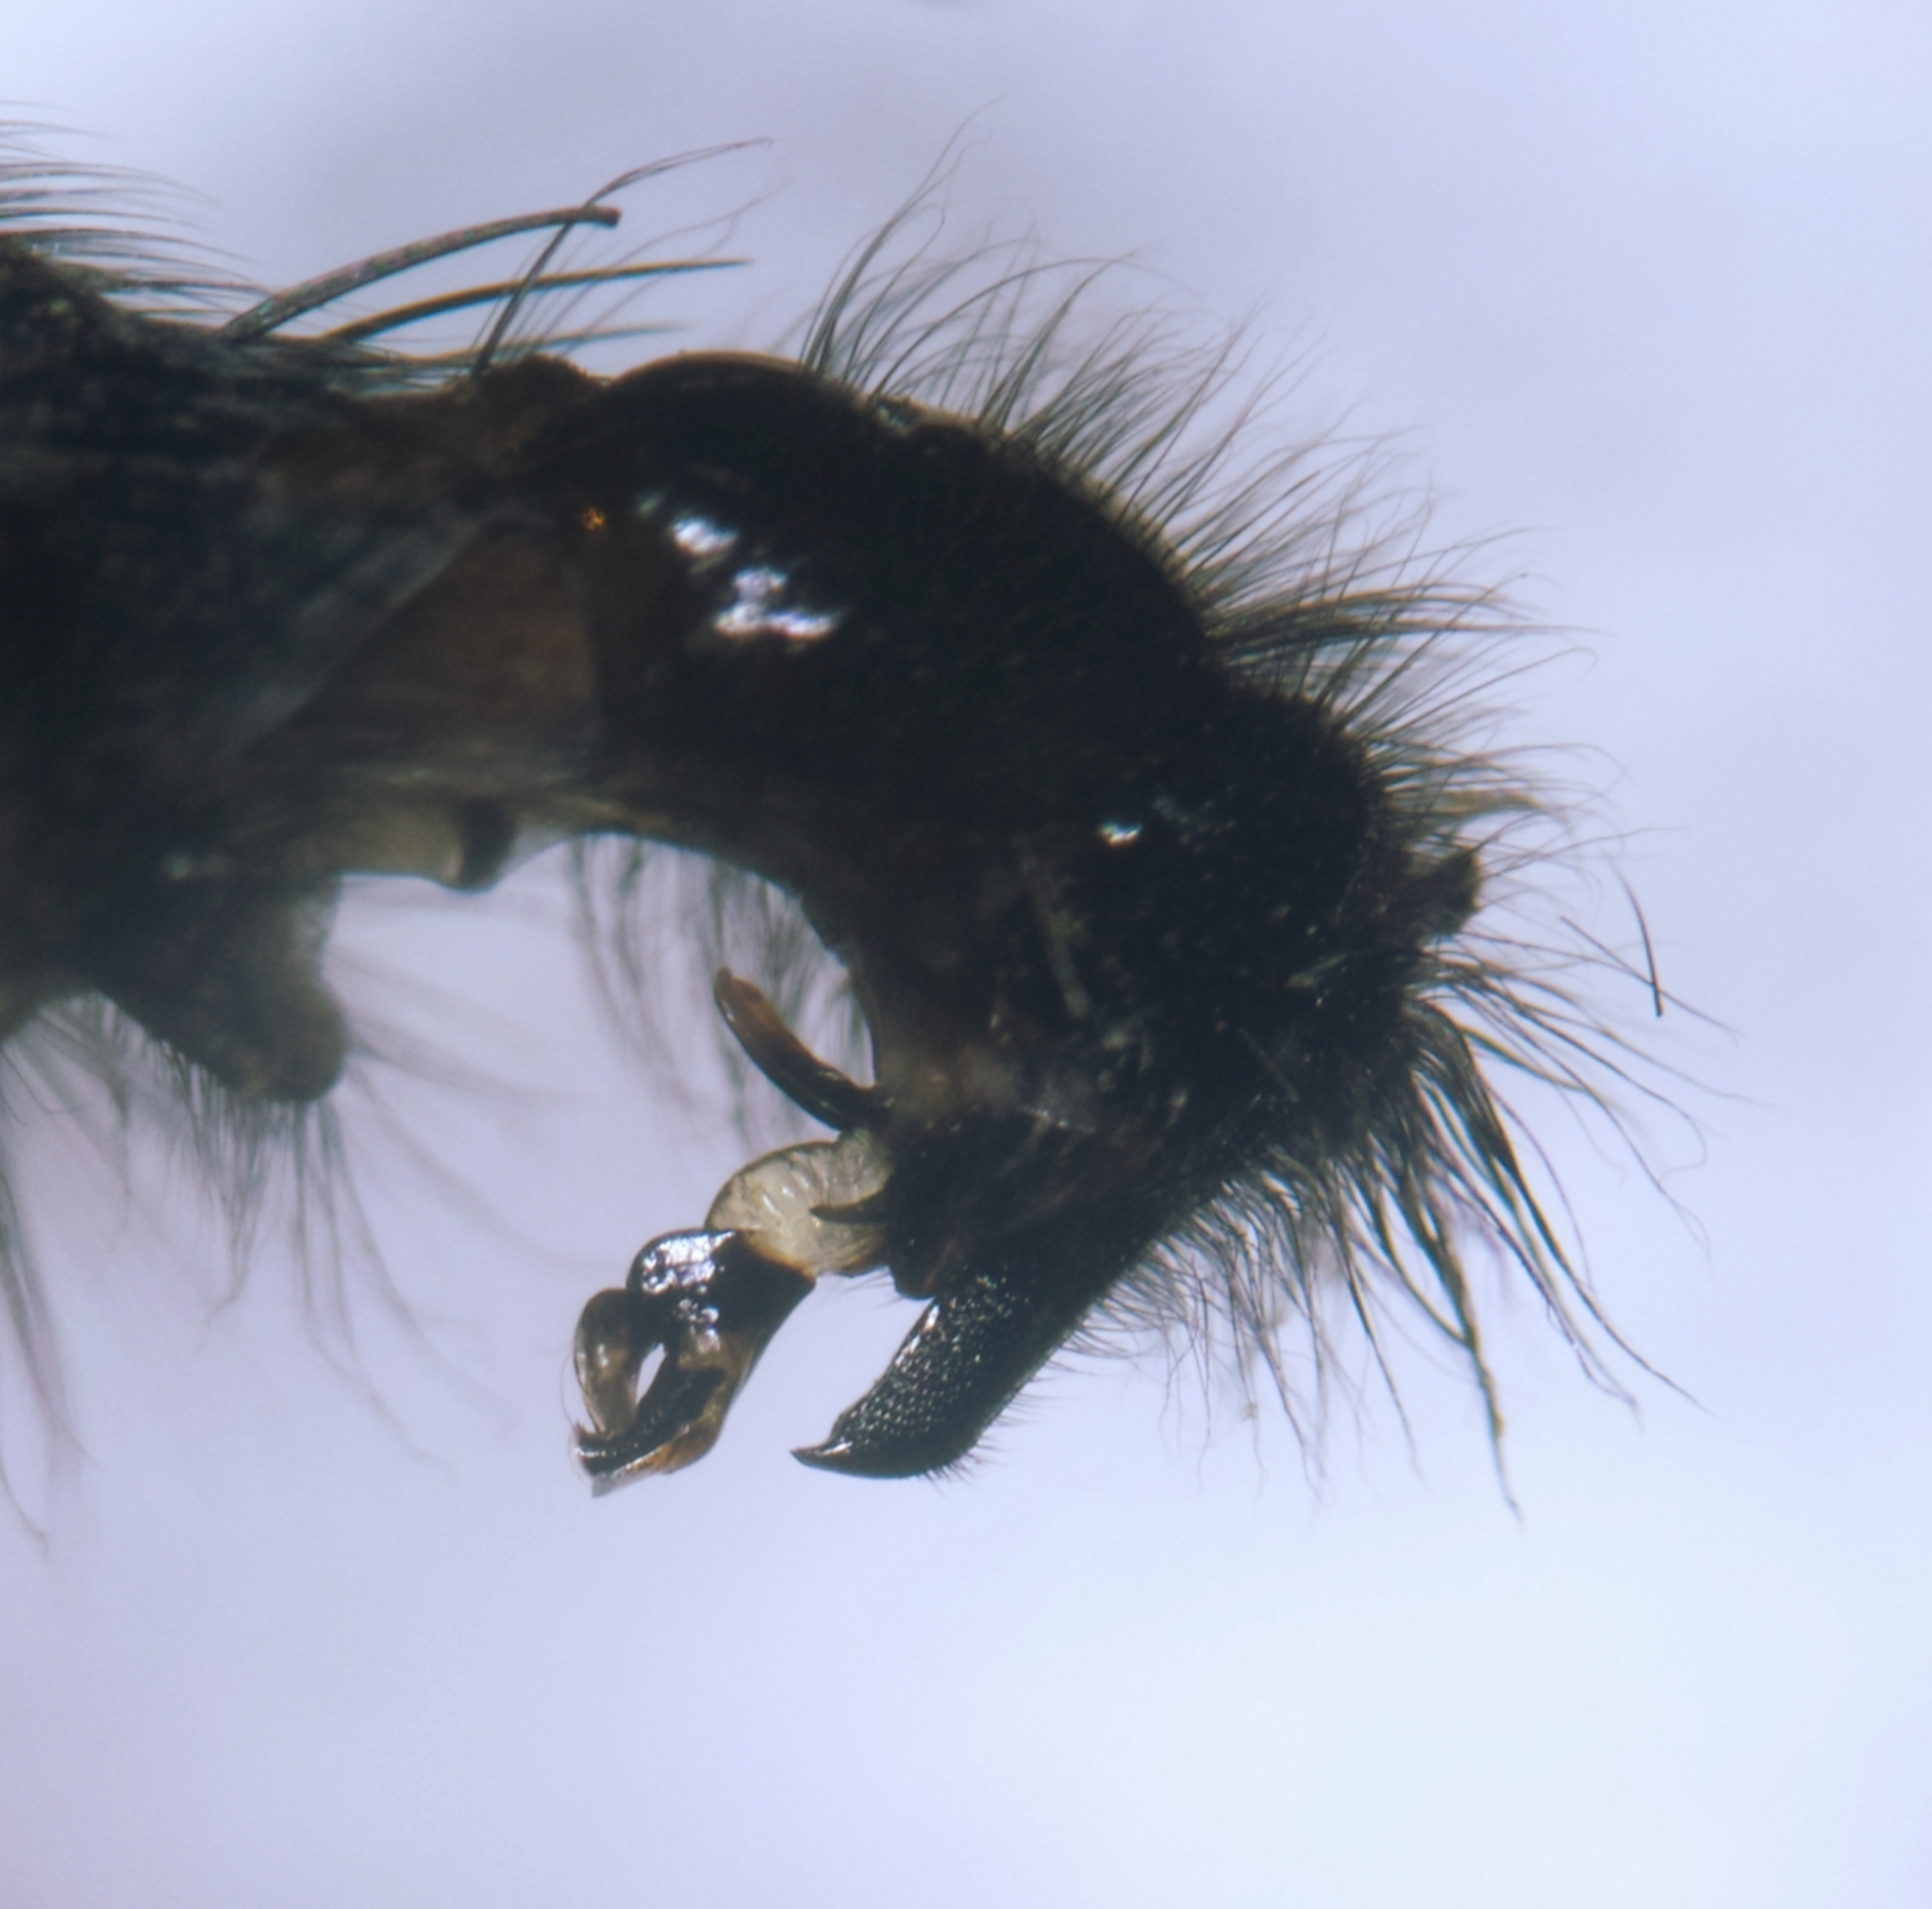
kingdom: Animalia
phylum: Arthropoda
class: Insecta
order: Diptera
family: Sarcophagidae
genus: Sarcophaga
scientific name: Sarcophaga carnaria
